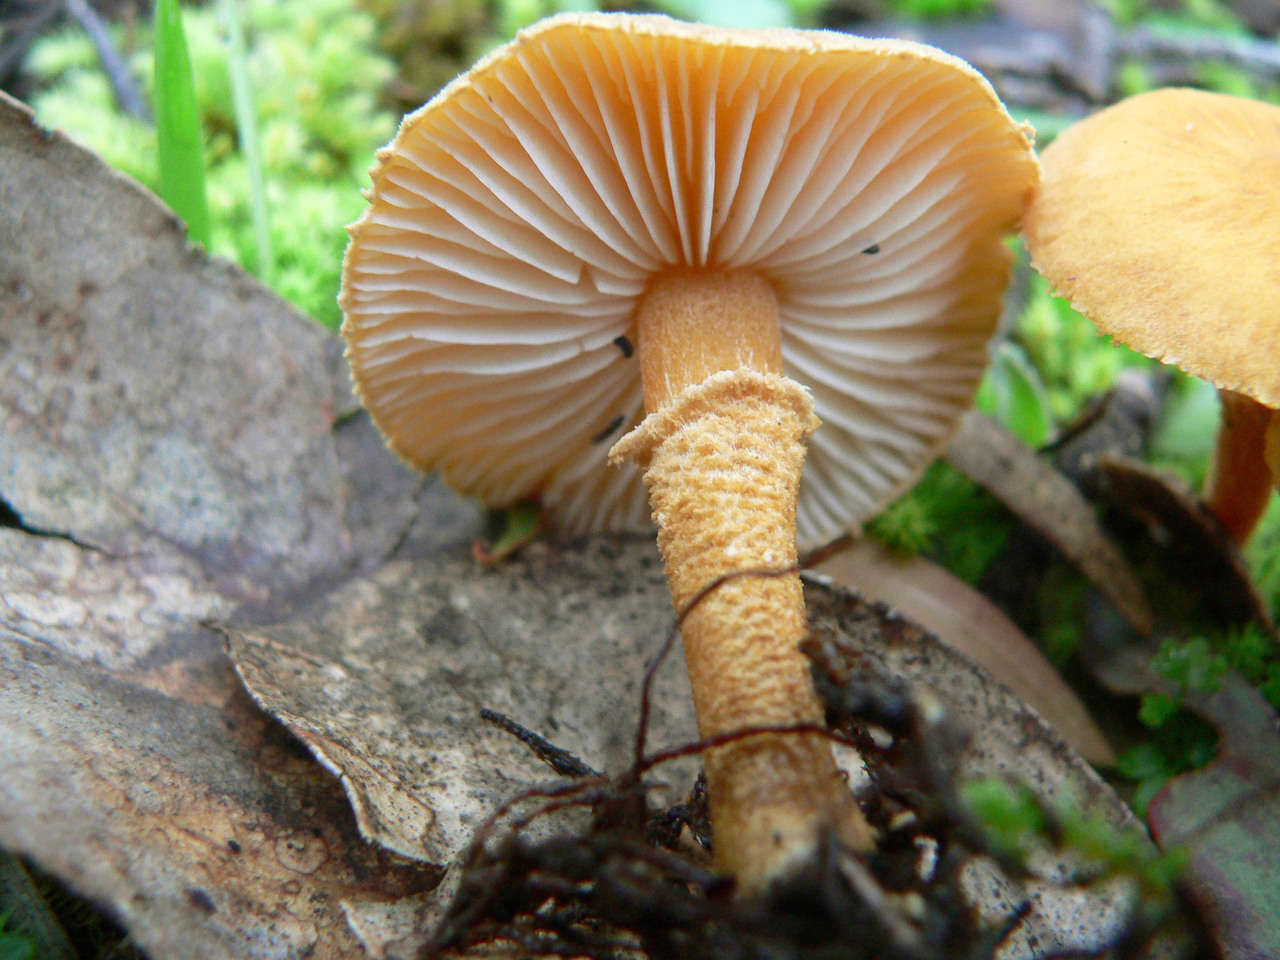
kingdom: Fungi
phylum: Basidiomycota
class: Agaricomycetes
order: Agaricales
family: Tricholomataceae
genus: Cystoderma
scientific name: Cystoderma muscicola
